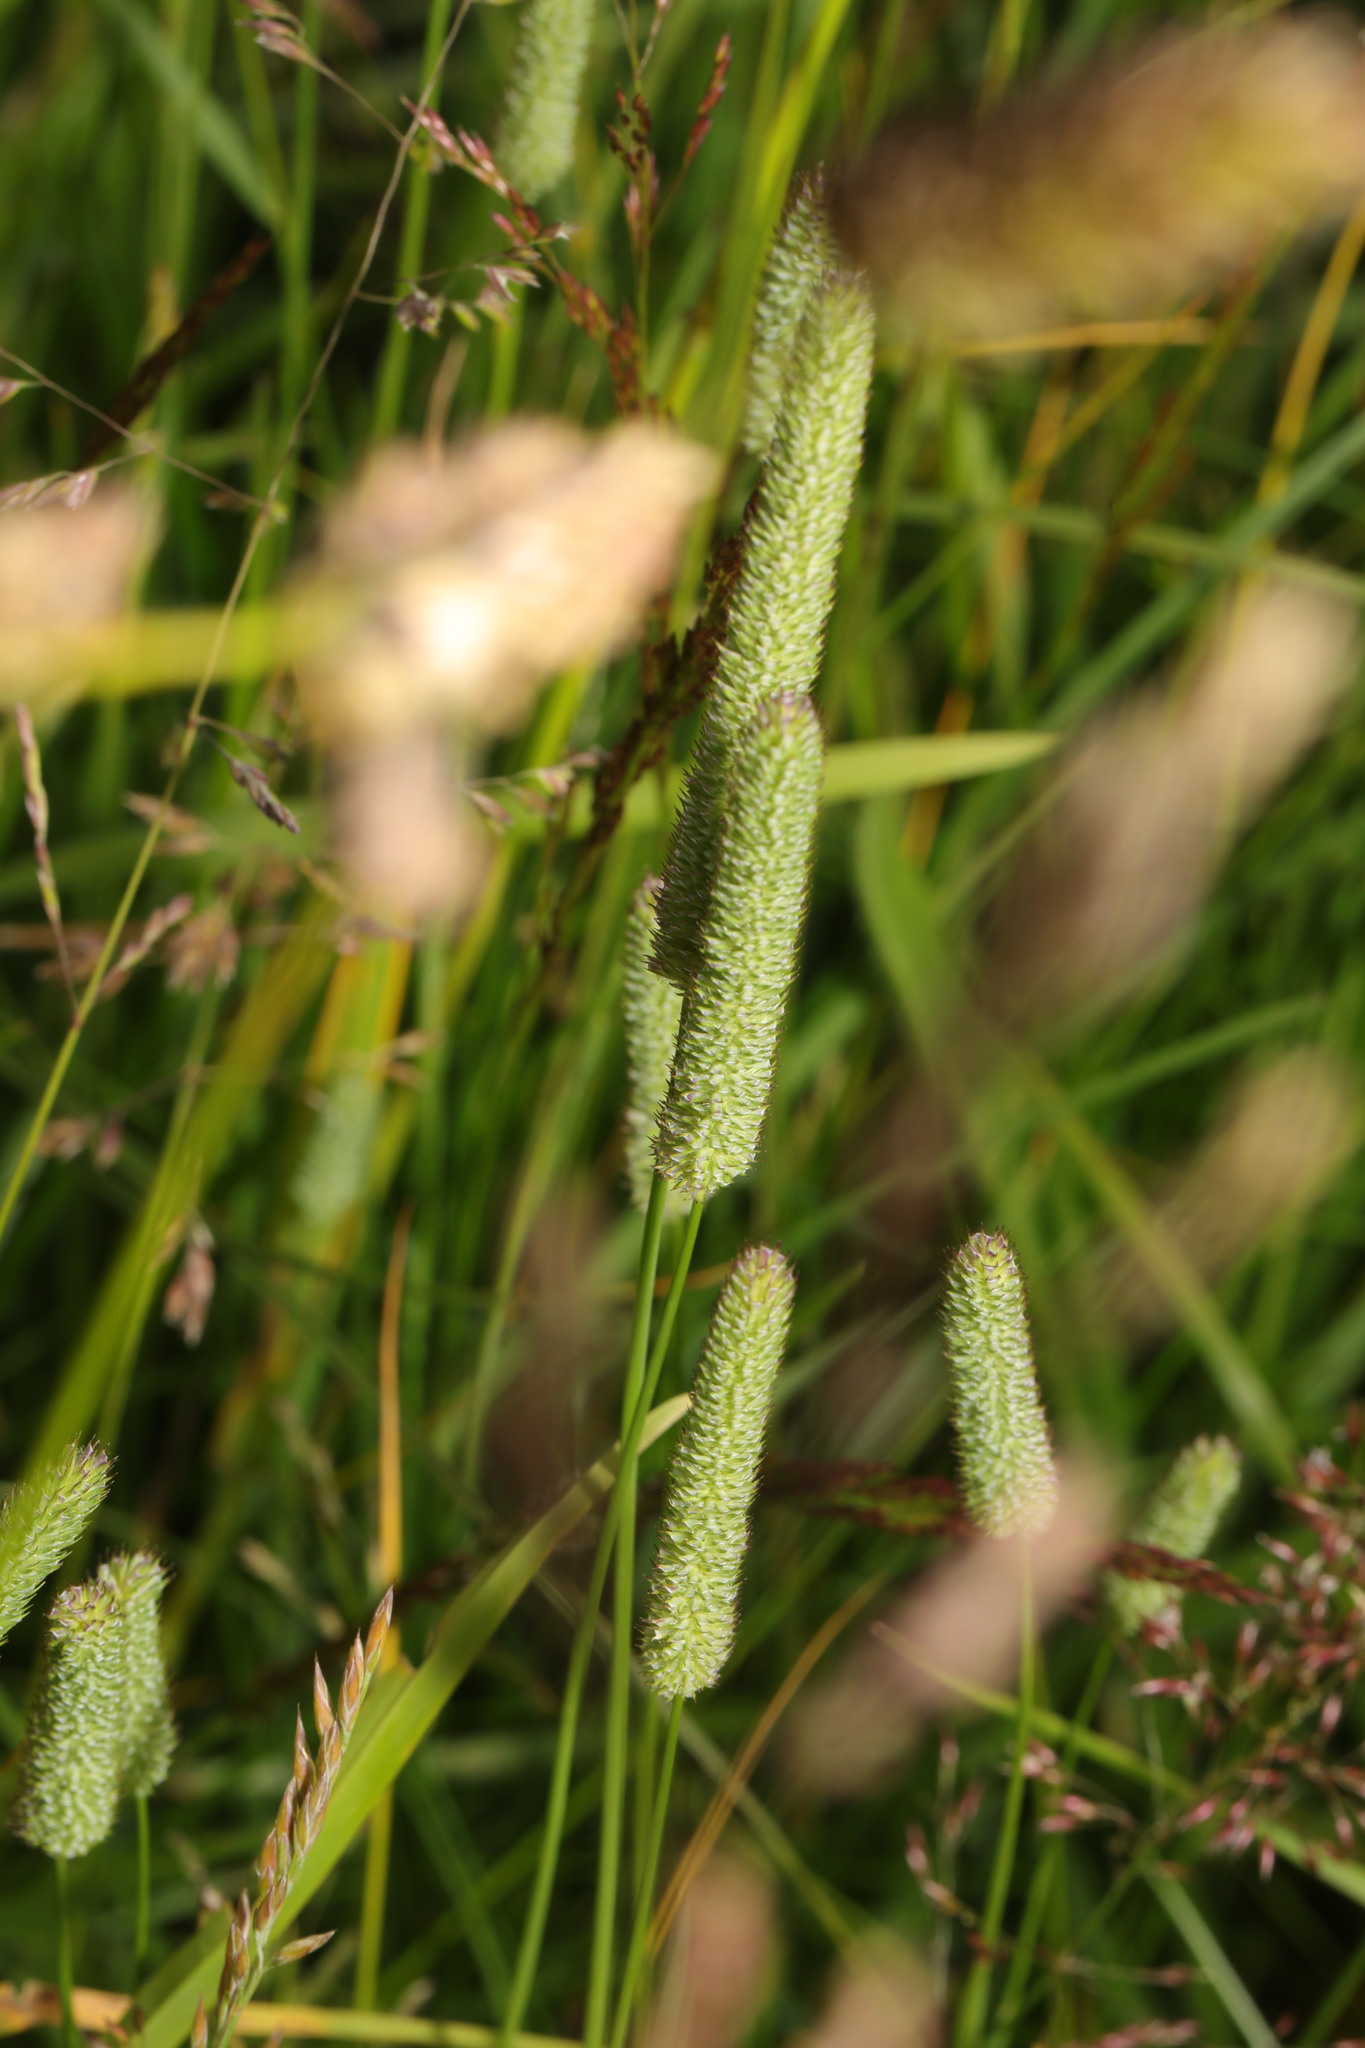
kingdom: Plantae
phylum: Tracheophyta
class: Liliopsida
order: Poales
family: Poaceae
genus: Phleum
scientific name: Phleum pratense
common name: Timothy grass
